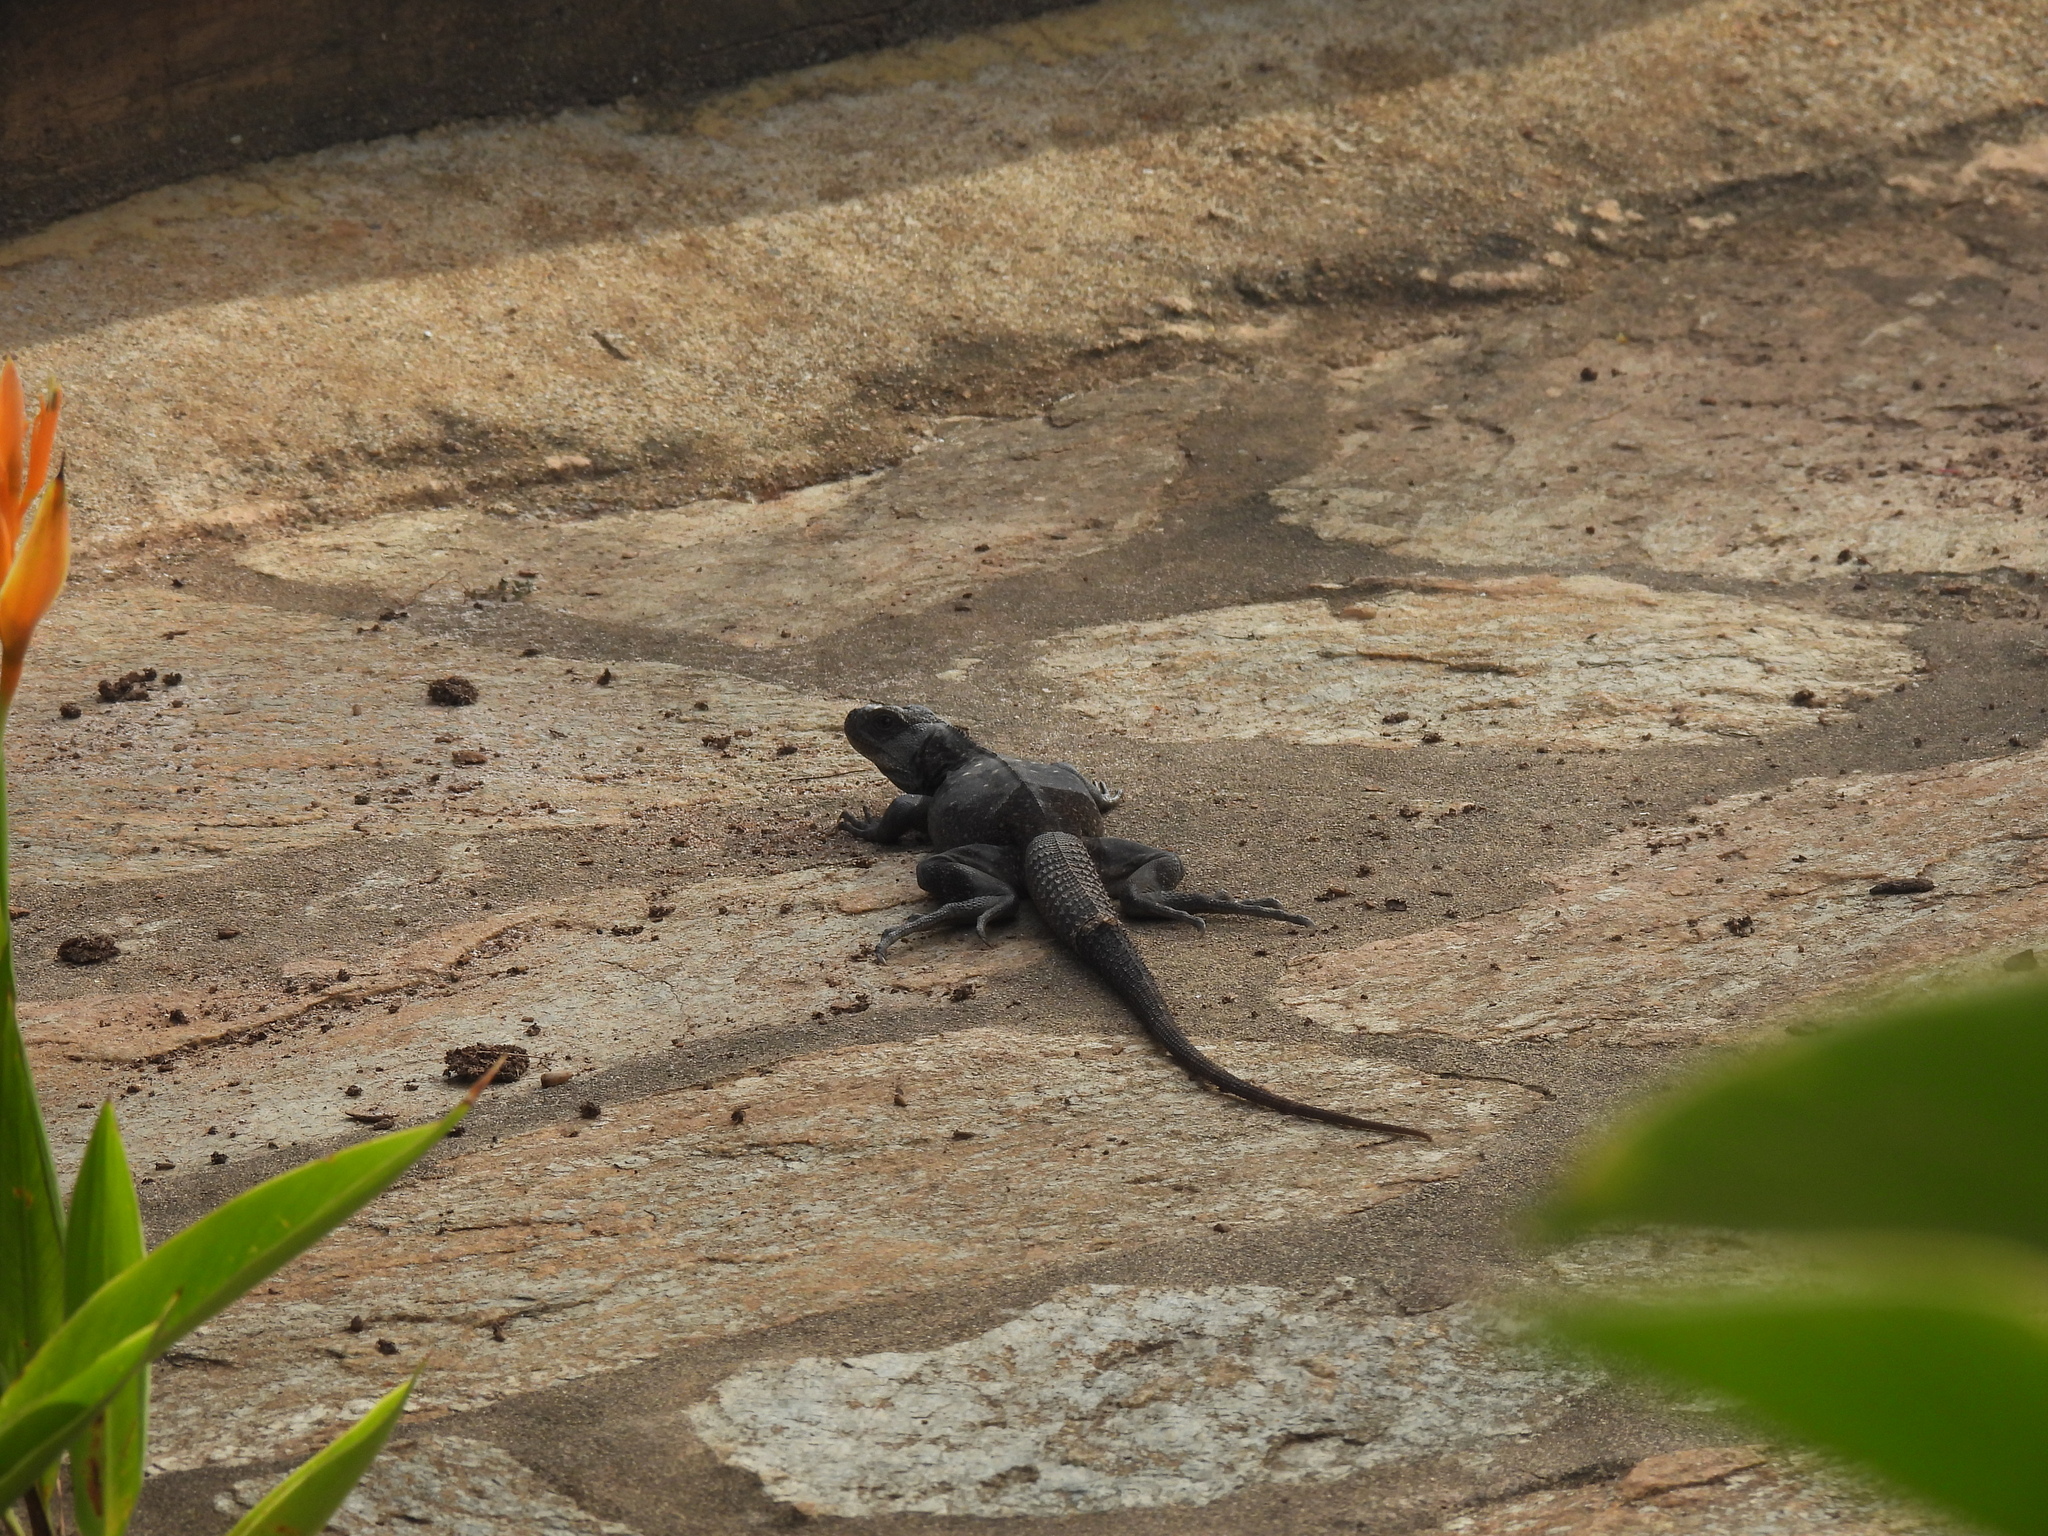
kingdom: Animalia
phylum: Chordata
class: Squamata
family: Iguanidae
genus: Ctenosaura
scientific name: Ctenosaura oedirhina
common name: Roatan spiny-tailed iguana
